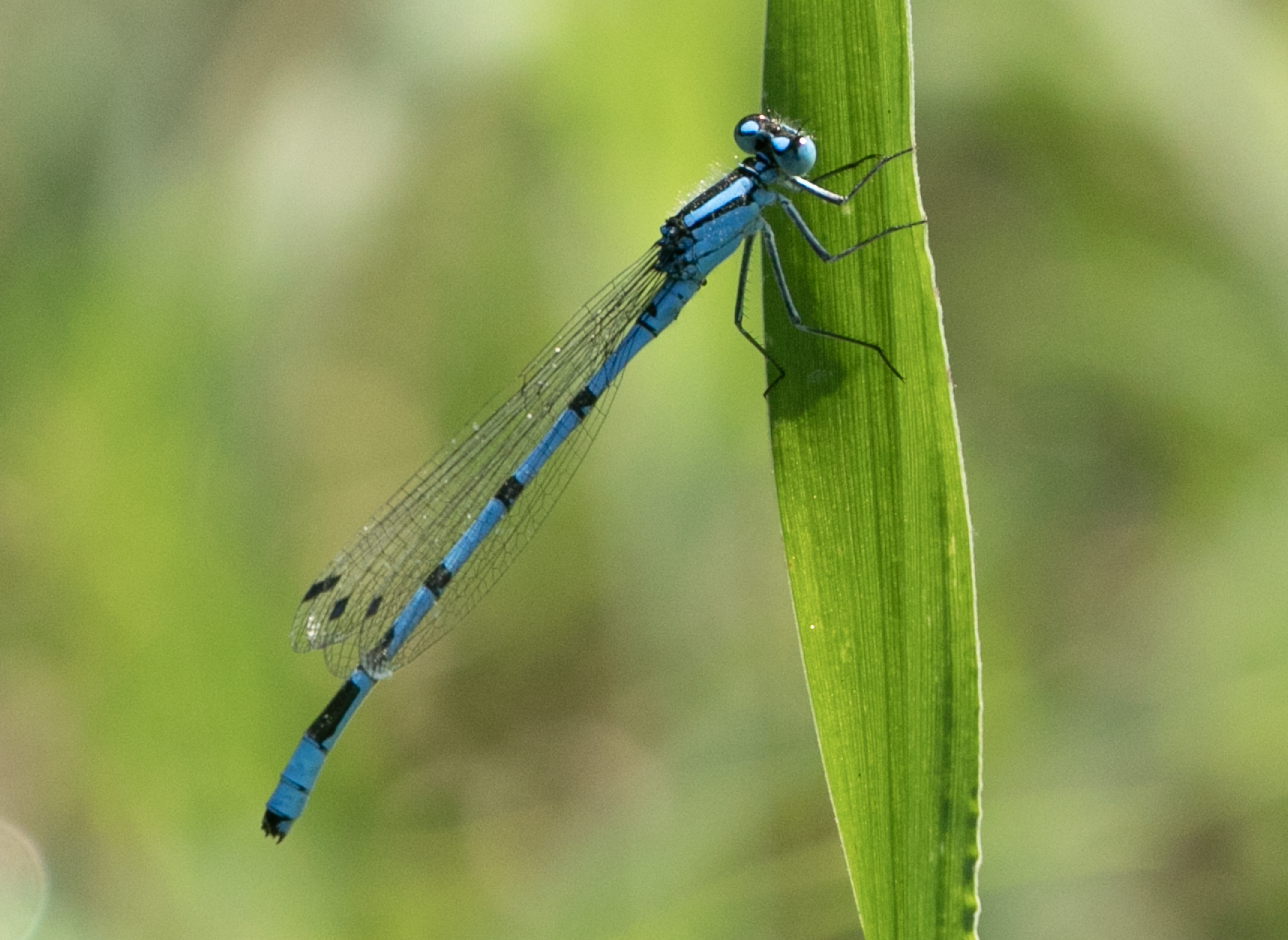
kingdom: Animalia
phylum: Arthropoda
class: Insecta
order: Odonata
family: Coenagrionidae
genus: Enallagma
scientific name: Enallagma cyathigerum
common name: Common blue damselfly
